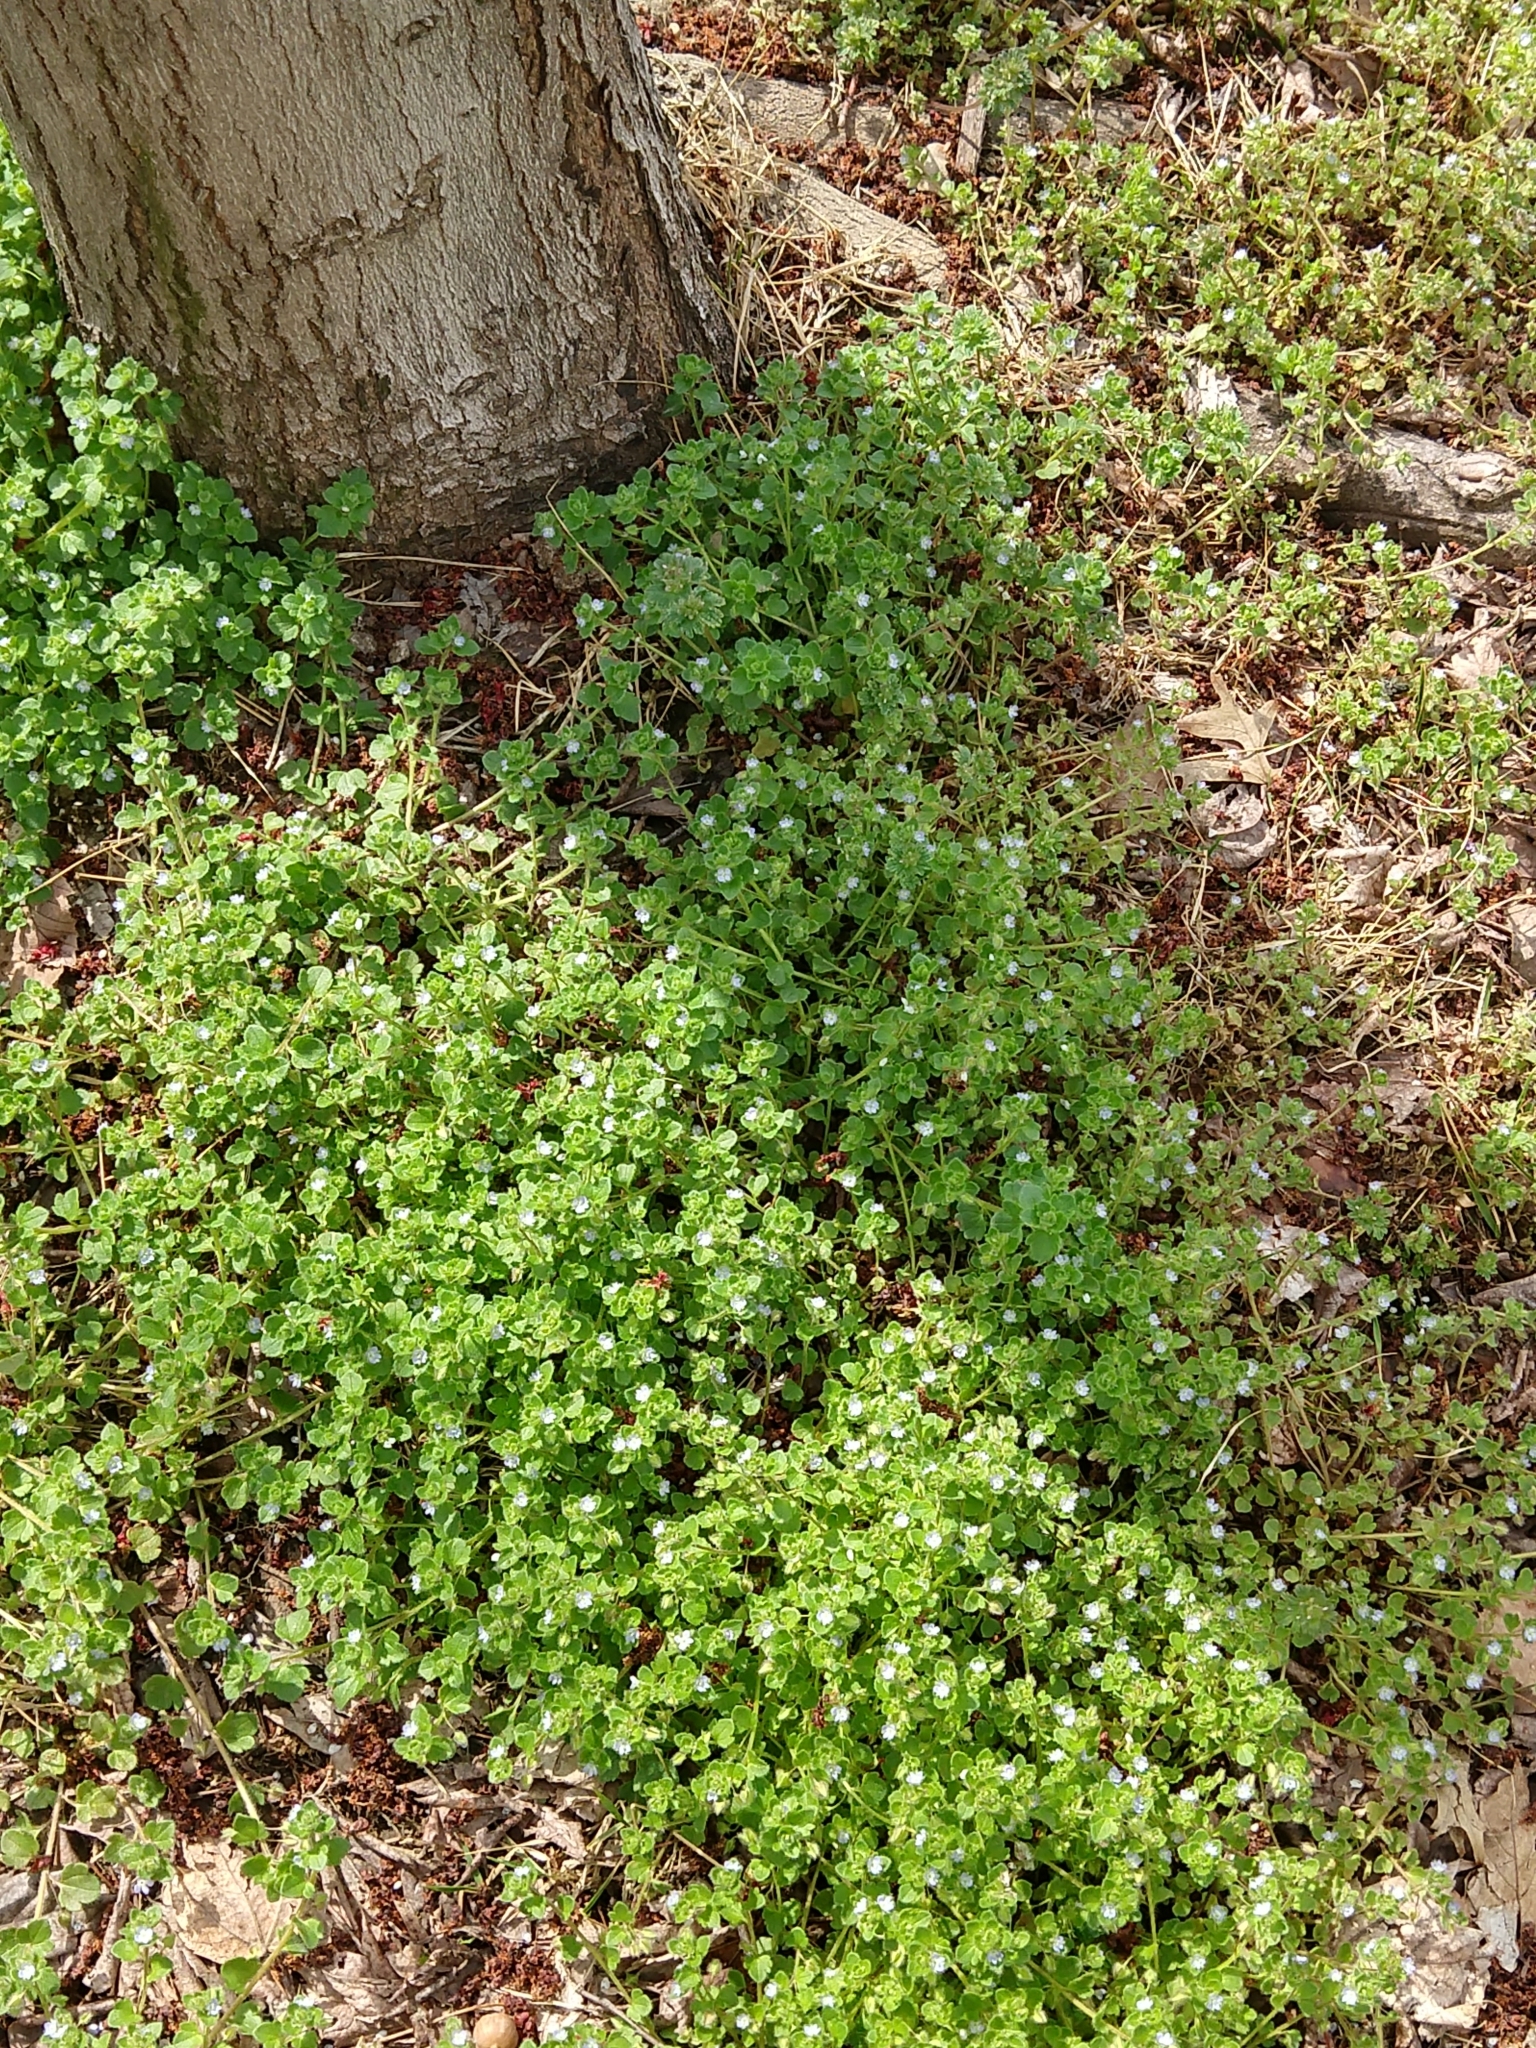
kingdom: Plantae
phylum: Tracheophyta
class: Magnoliopsida
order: Lamiales
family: Plantaginaceae
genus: Veronica
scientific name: Veronica hederifolia
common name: Ivy-leaved speedwell
